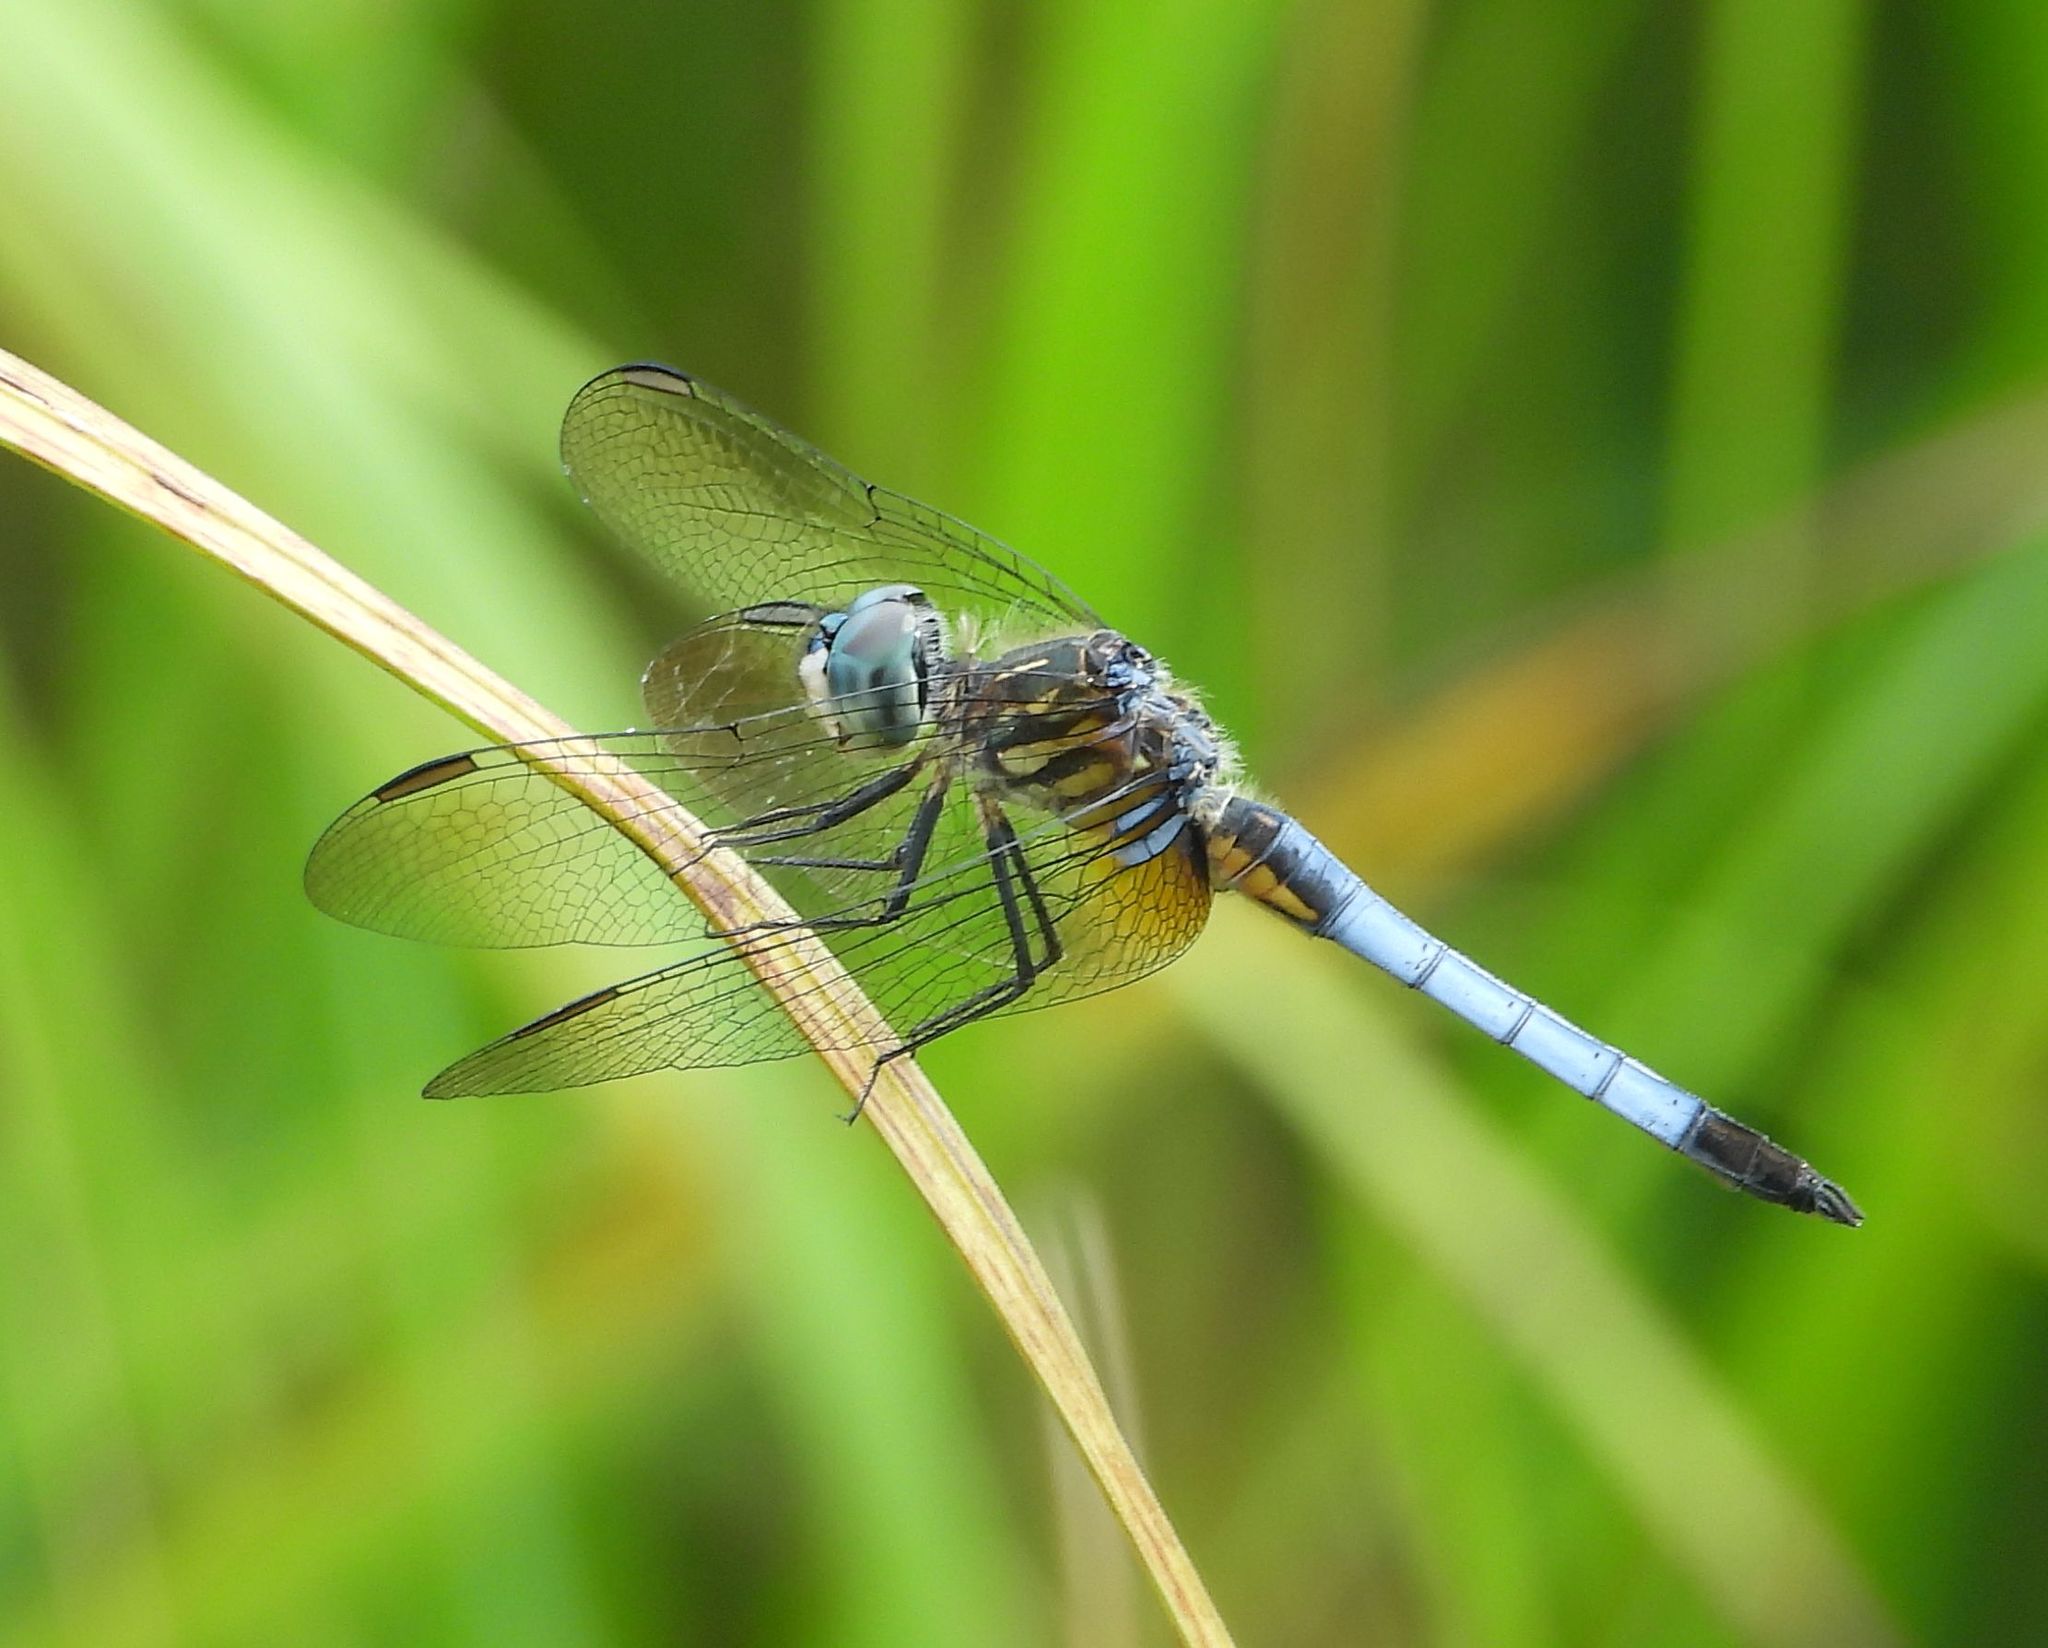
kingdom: Animalia
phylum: Arthropoda
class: Insecta
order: Odonata
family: Libellulidae
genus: Pachydiplax
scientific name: Pachydiplax longipennis
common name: Blue dasher
